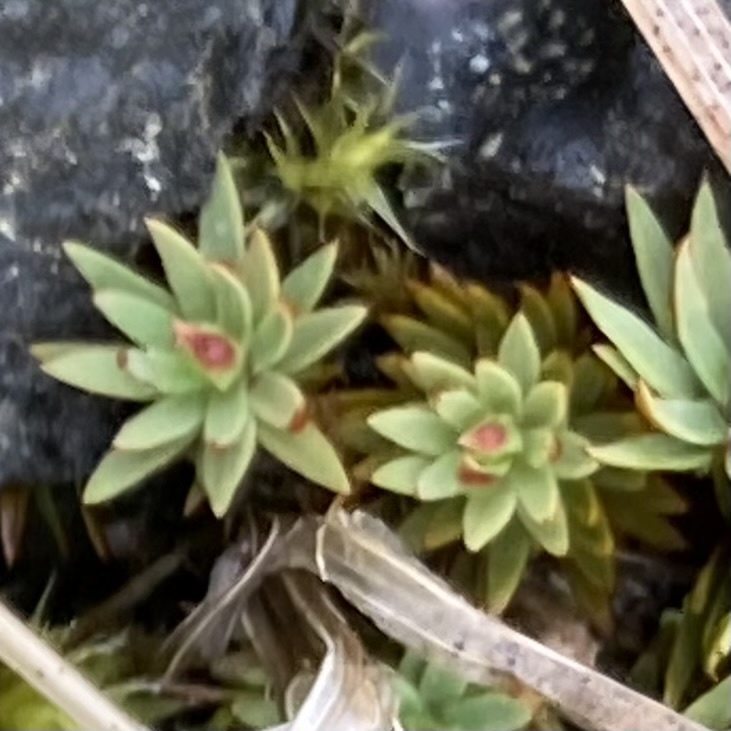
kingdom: Plantae
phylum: Bryophyta
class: Polytrichopsida
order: Polytrichales
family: Polytrichaceae
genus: Pogonatum
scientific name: Pogonatum urnigerum
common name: Urn hair moss
